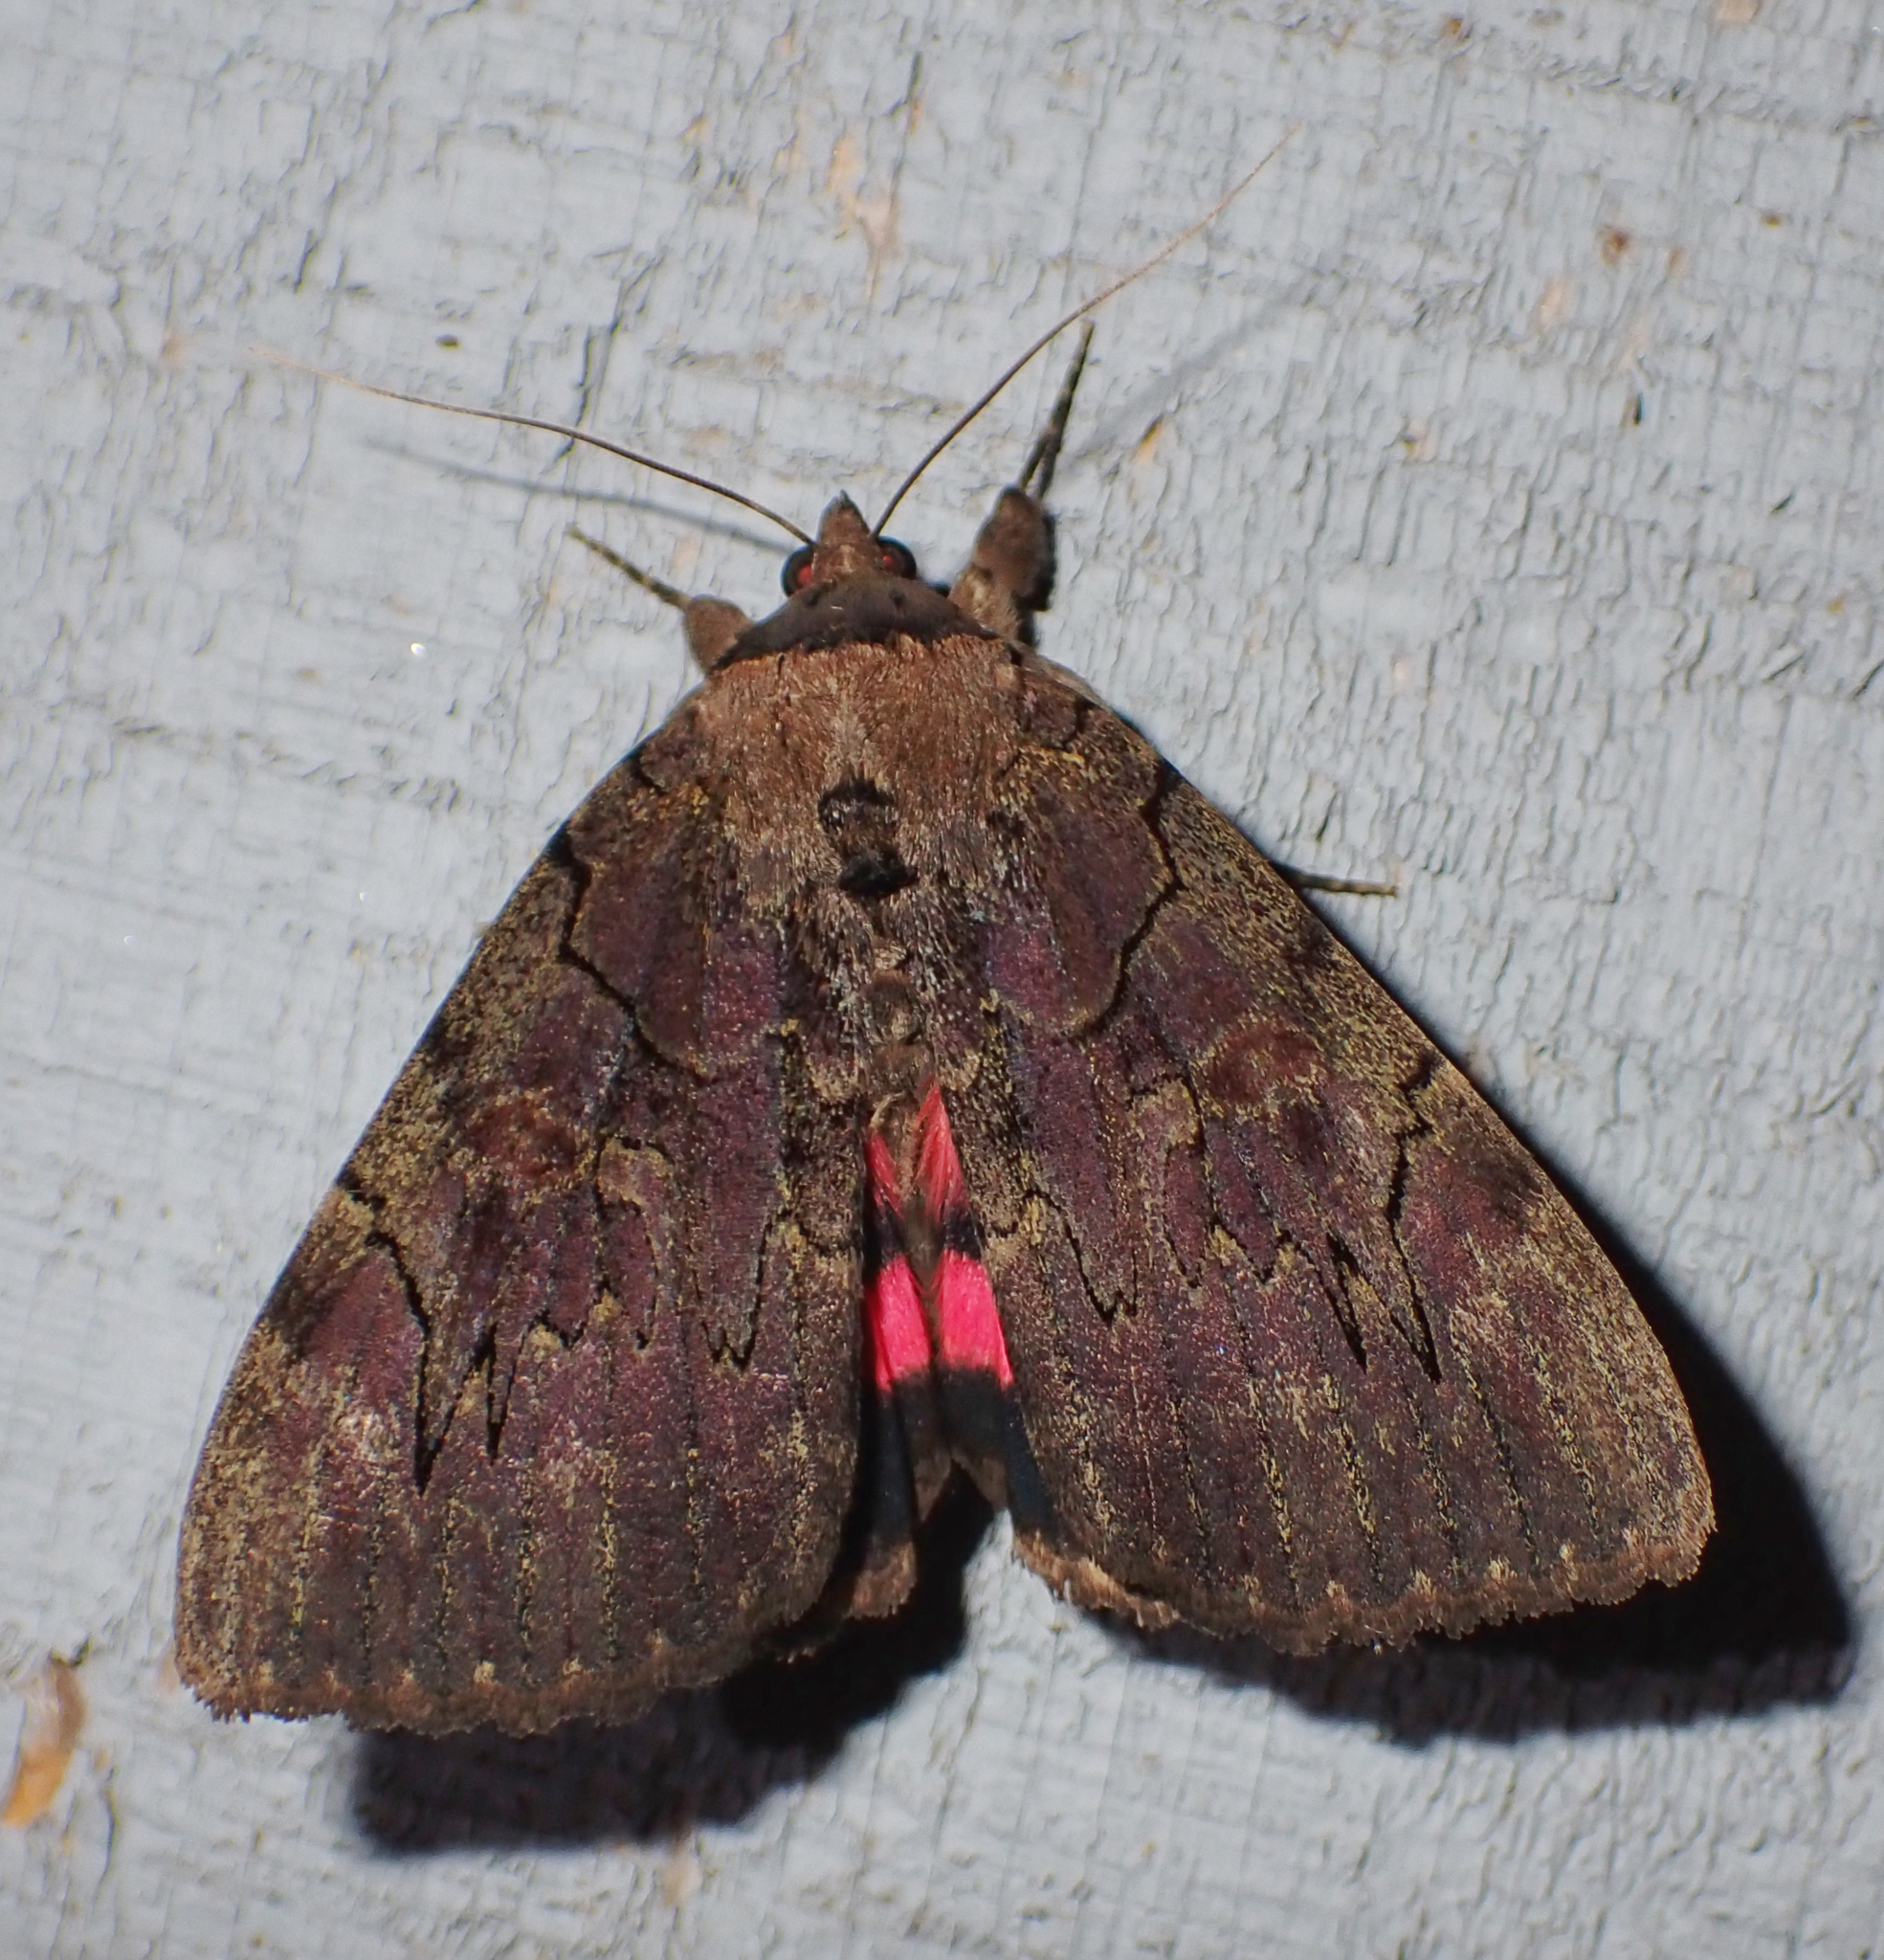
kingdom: Animalia
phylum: Arthropoda
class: Insecta
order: Lepidoptera
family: Erebidae
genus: Catocala
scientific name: Catocala cara
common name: Darling underwing
